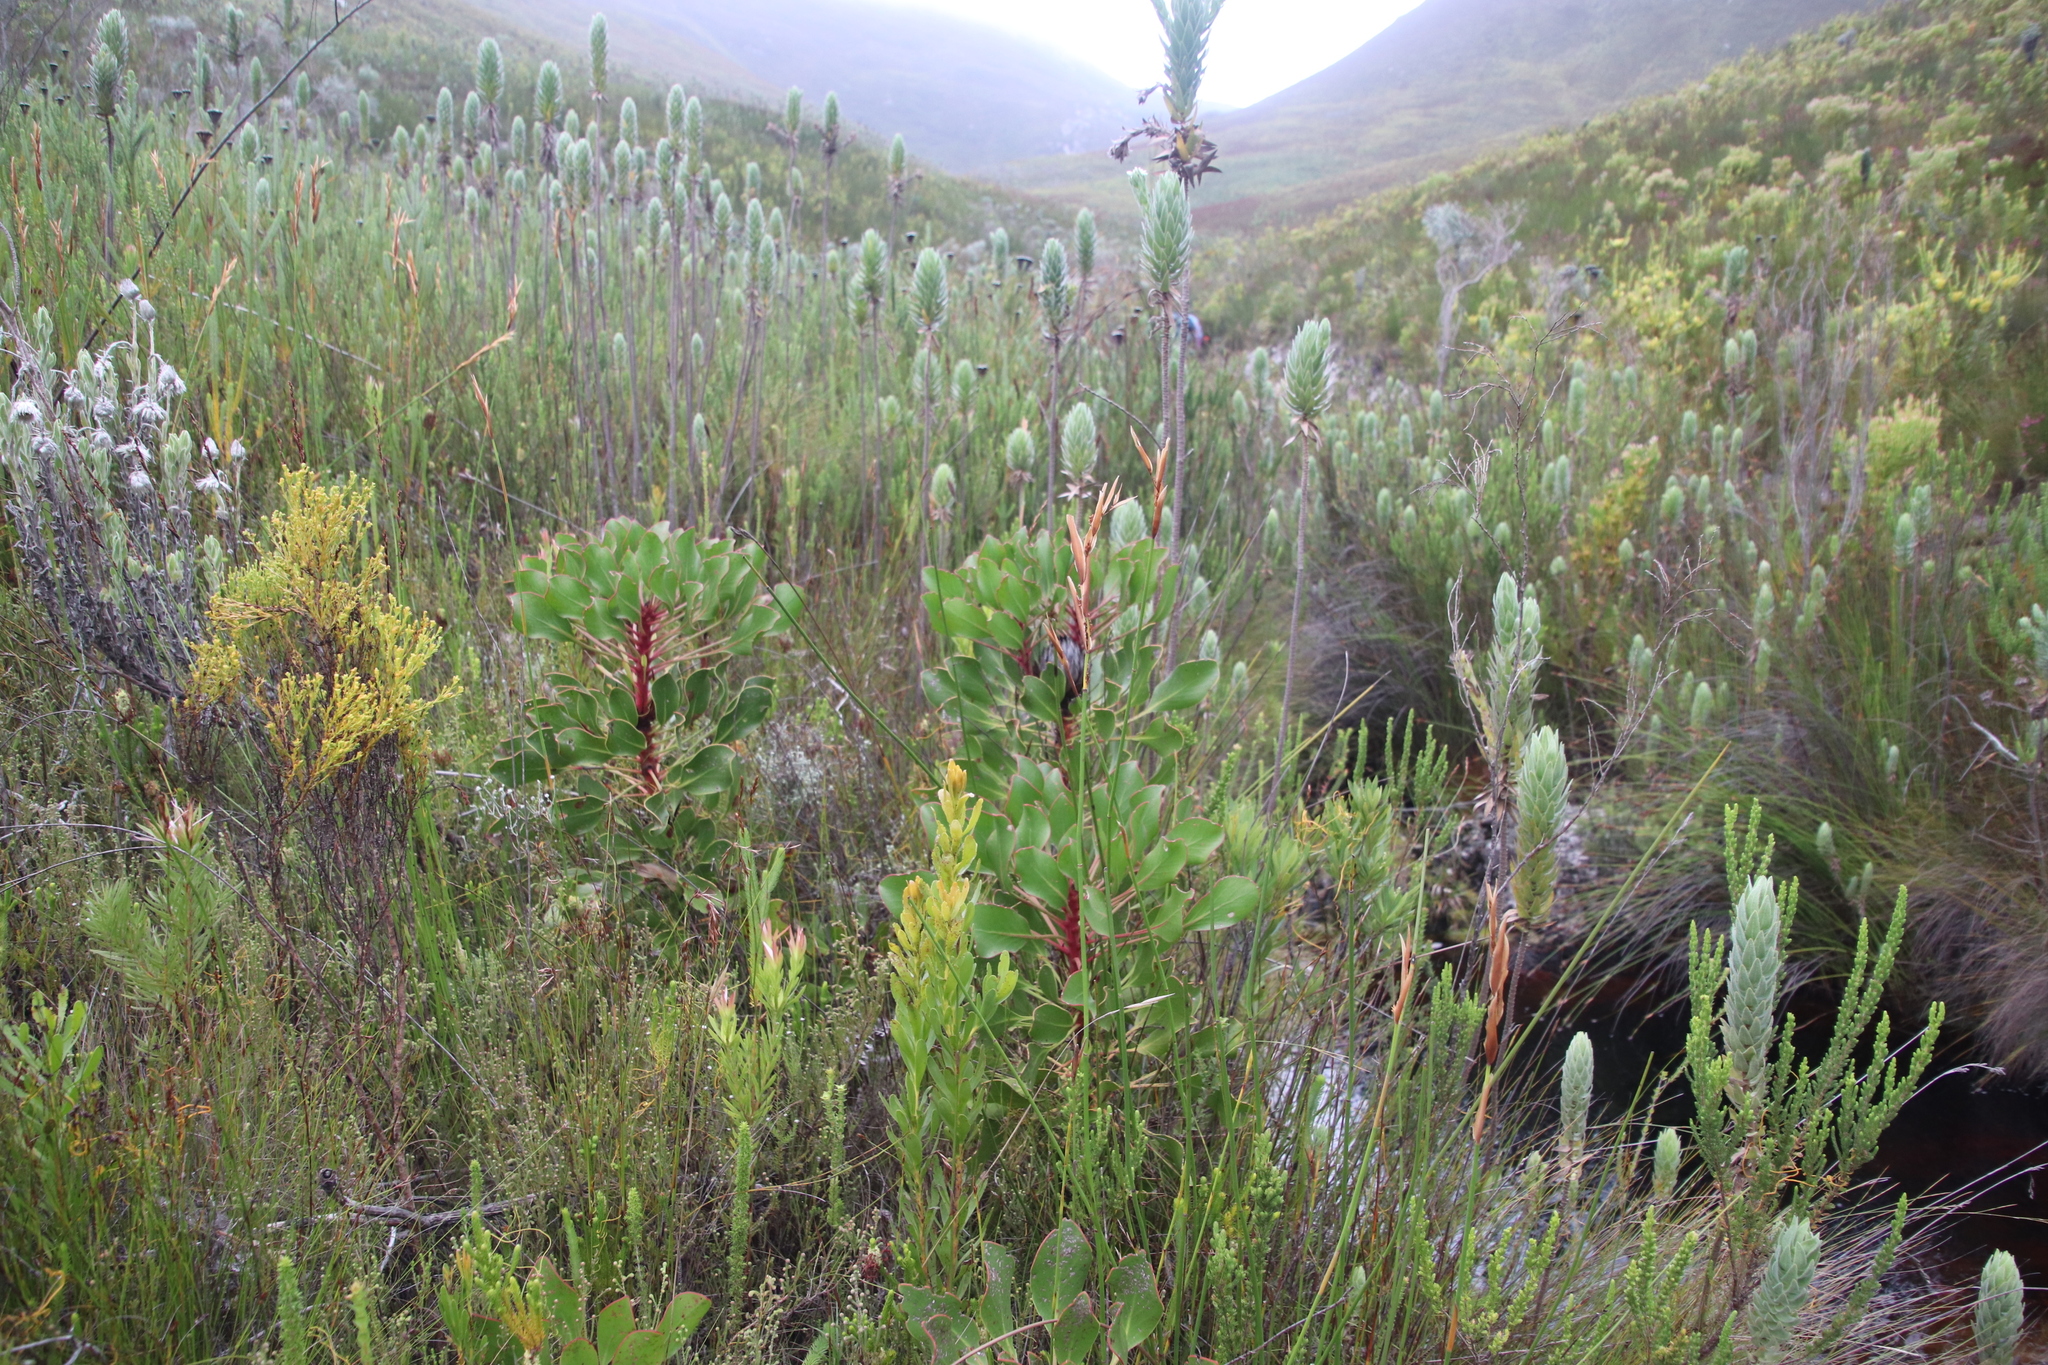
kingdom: Plantae
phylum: Tracheophyta
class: Magnoliopsida
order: Proteales
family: Proteaceae
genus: Protea
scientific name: Protea cynaroides
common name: King protea
